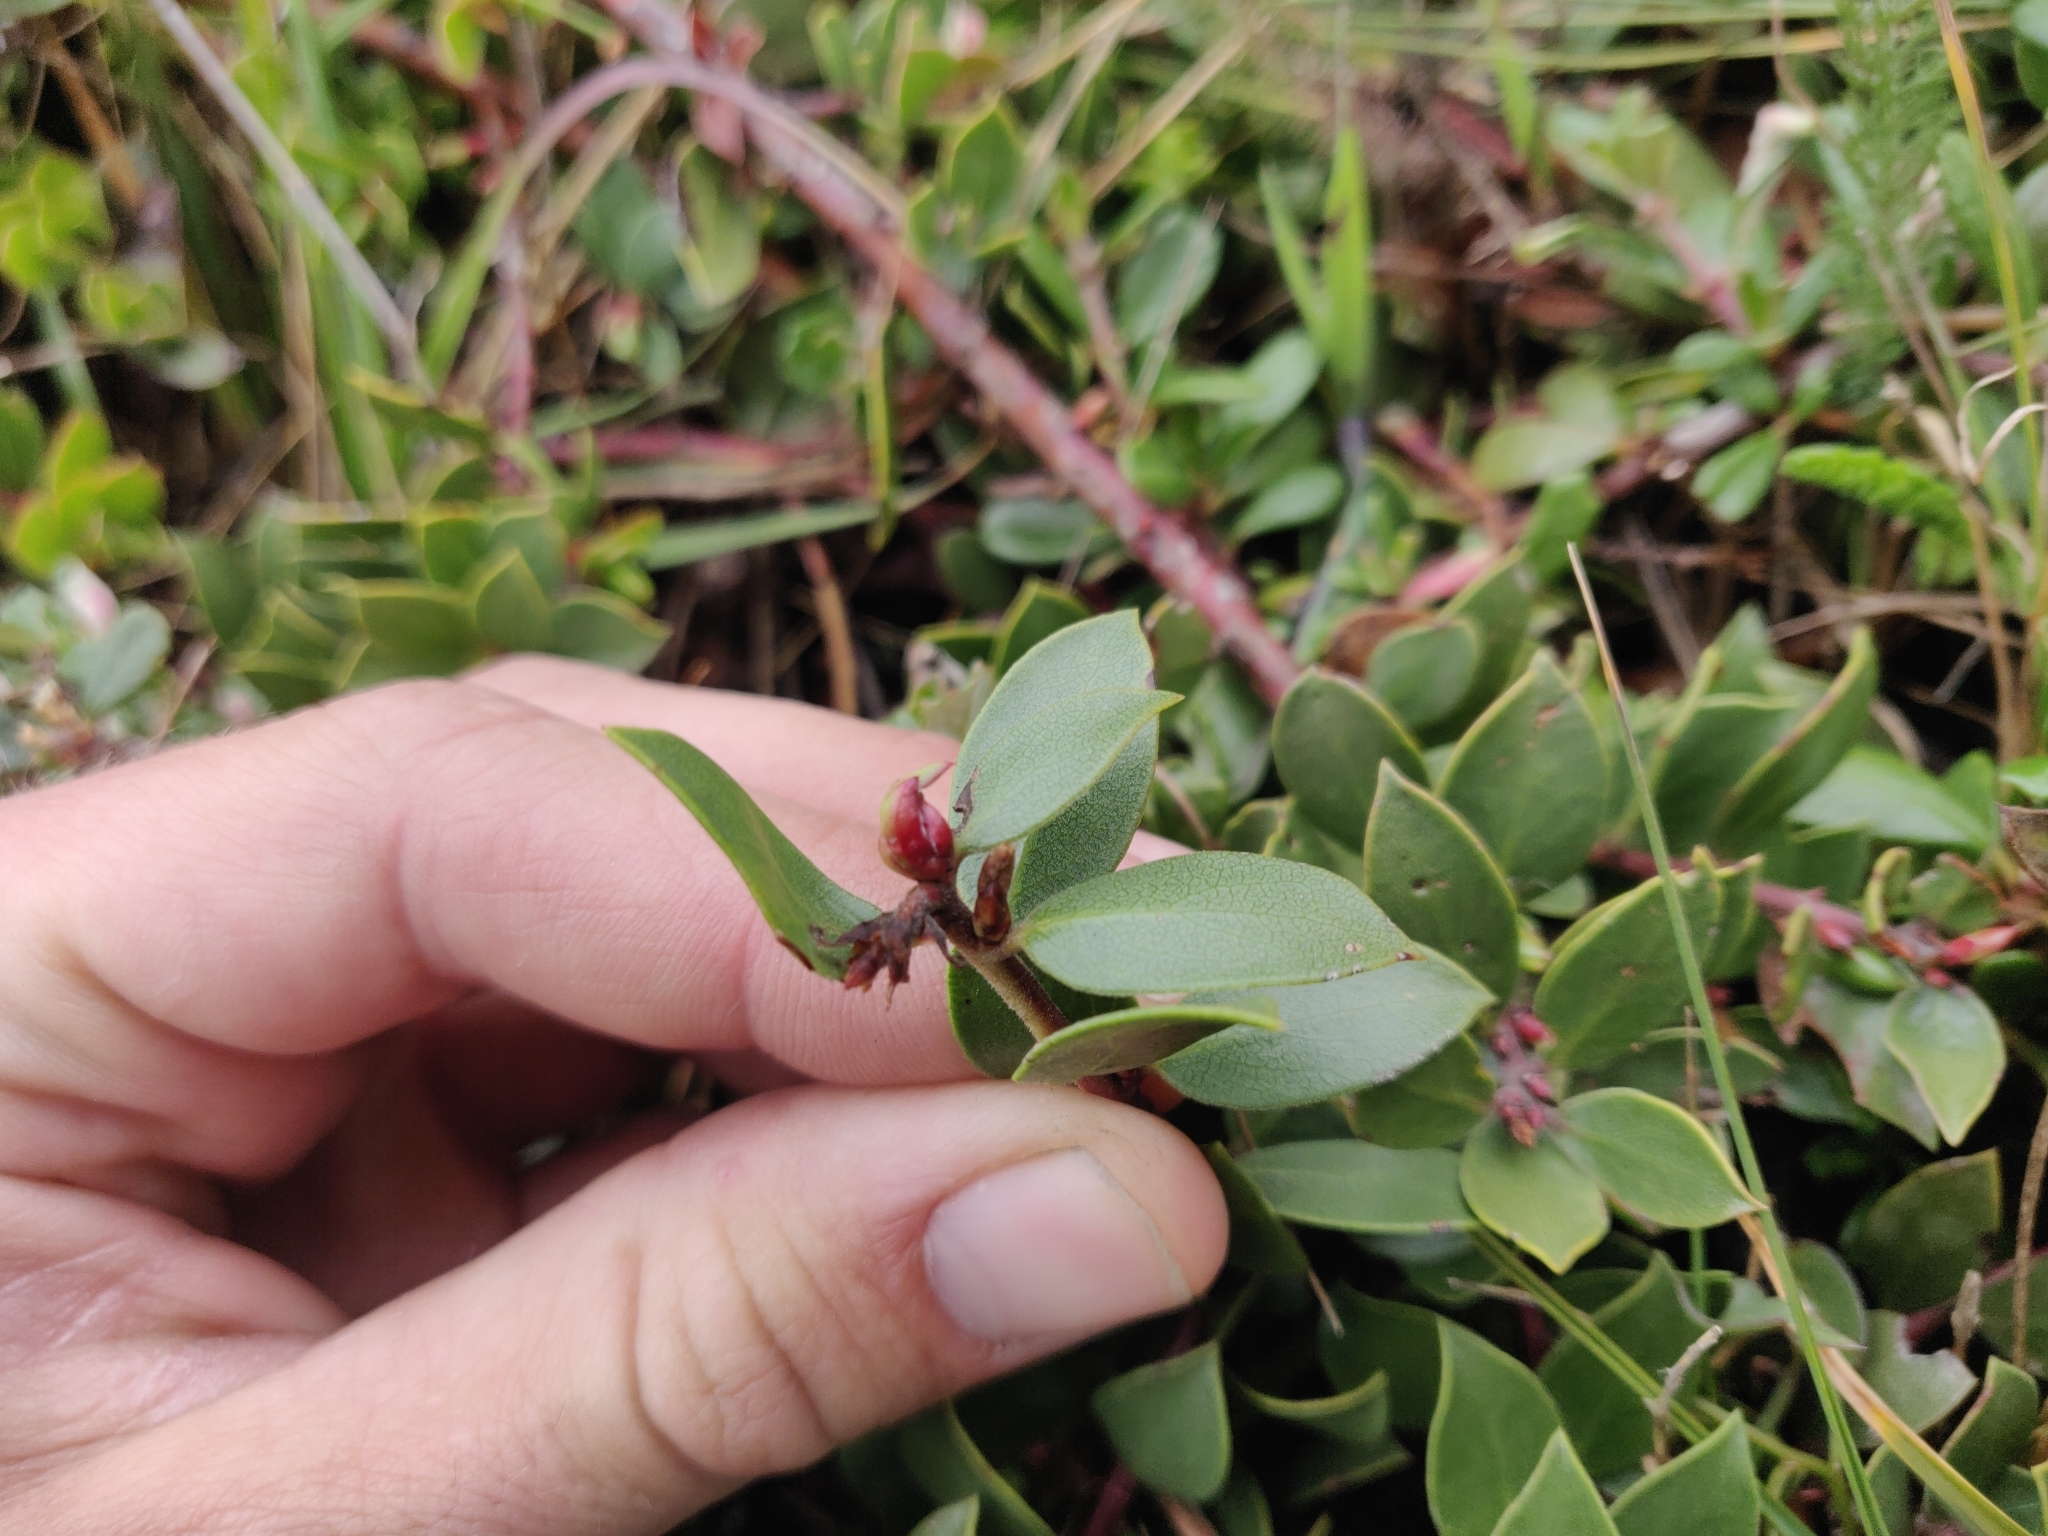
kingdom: Plantae
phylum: Tracheophyta
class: Magnoliopsida
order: Ericales
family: Ericaceae
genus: Arctostaphylos
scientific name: Arctostaphylos hookeri
